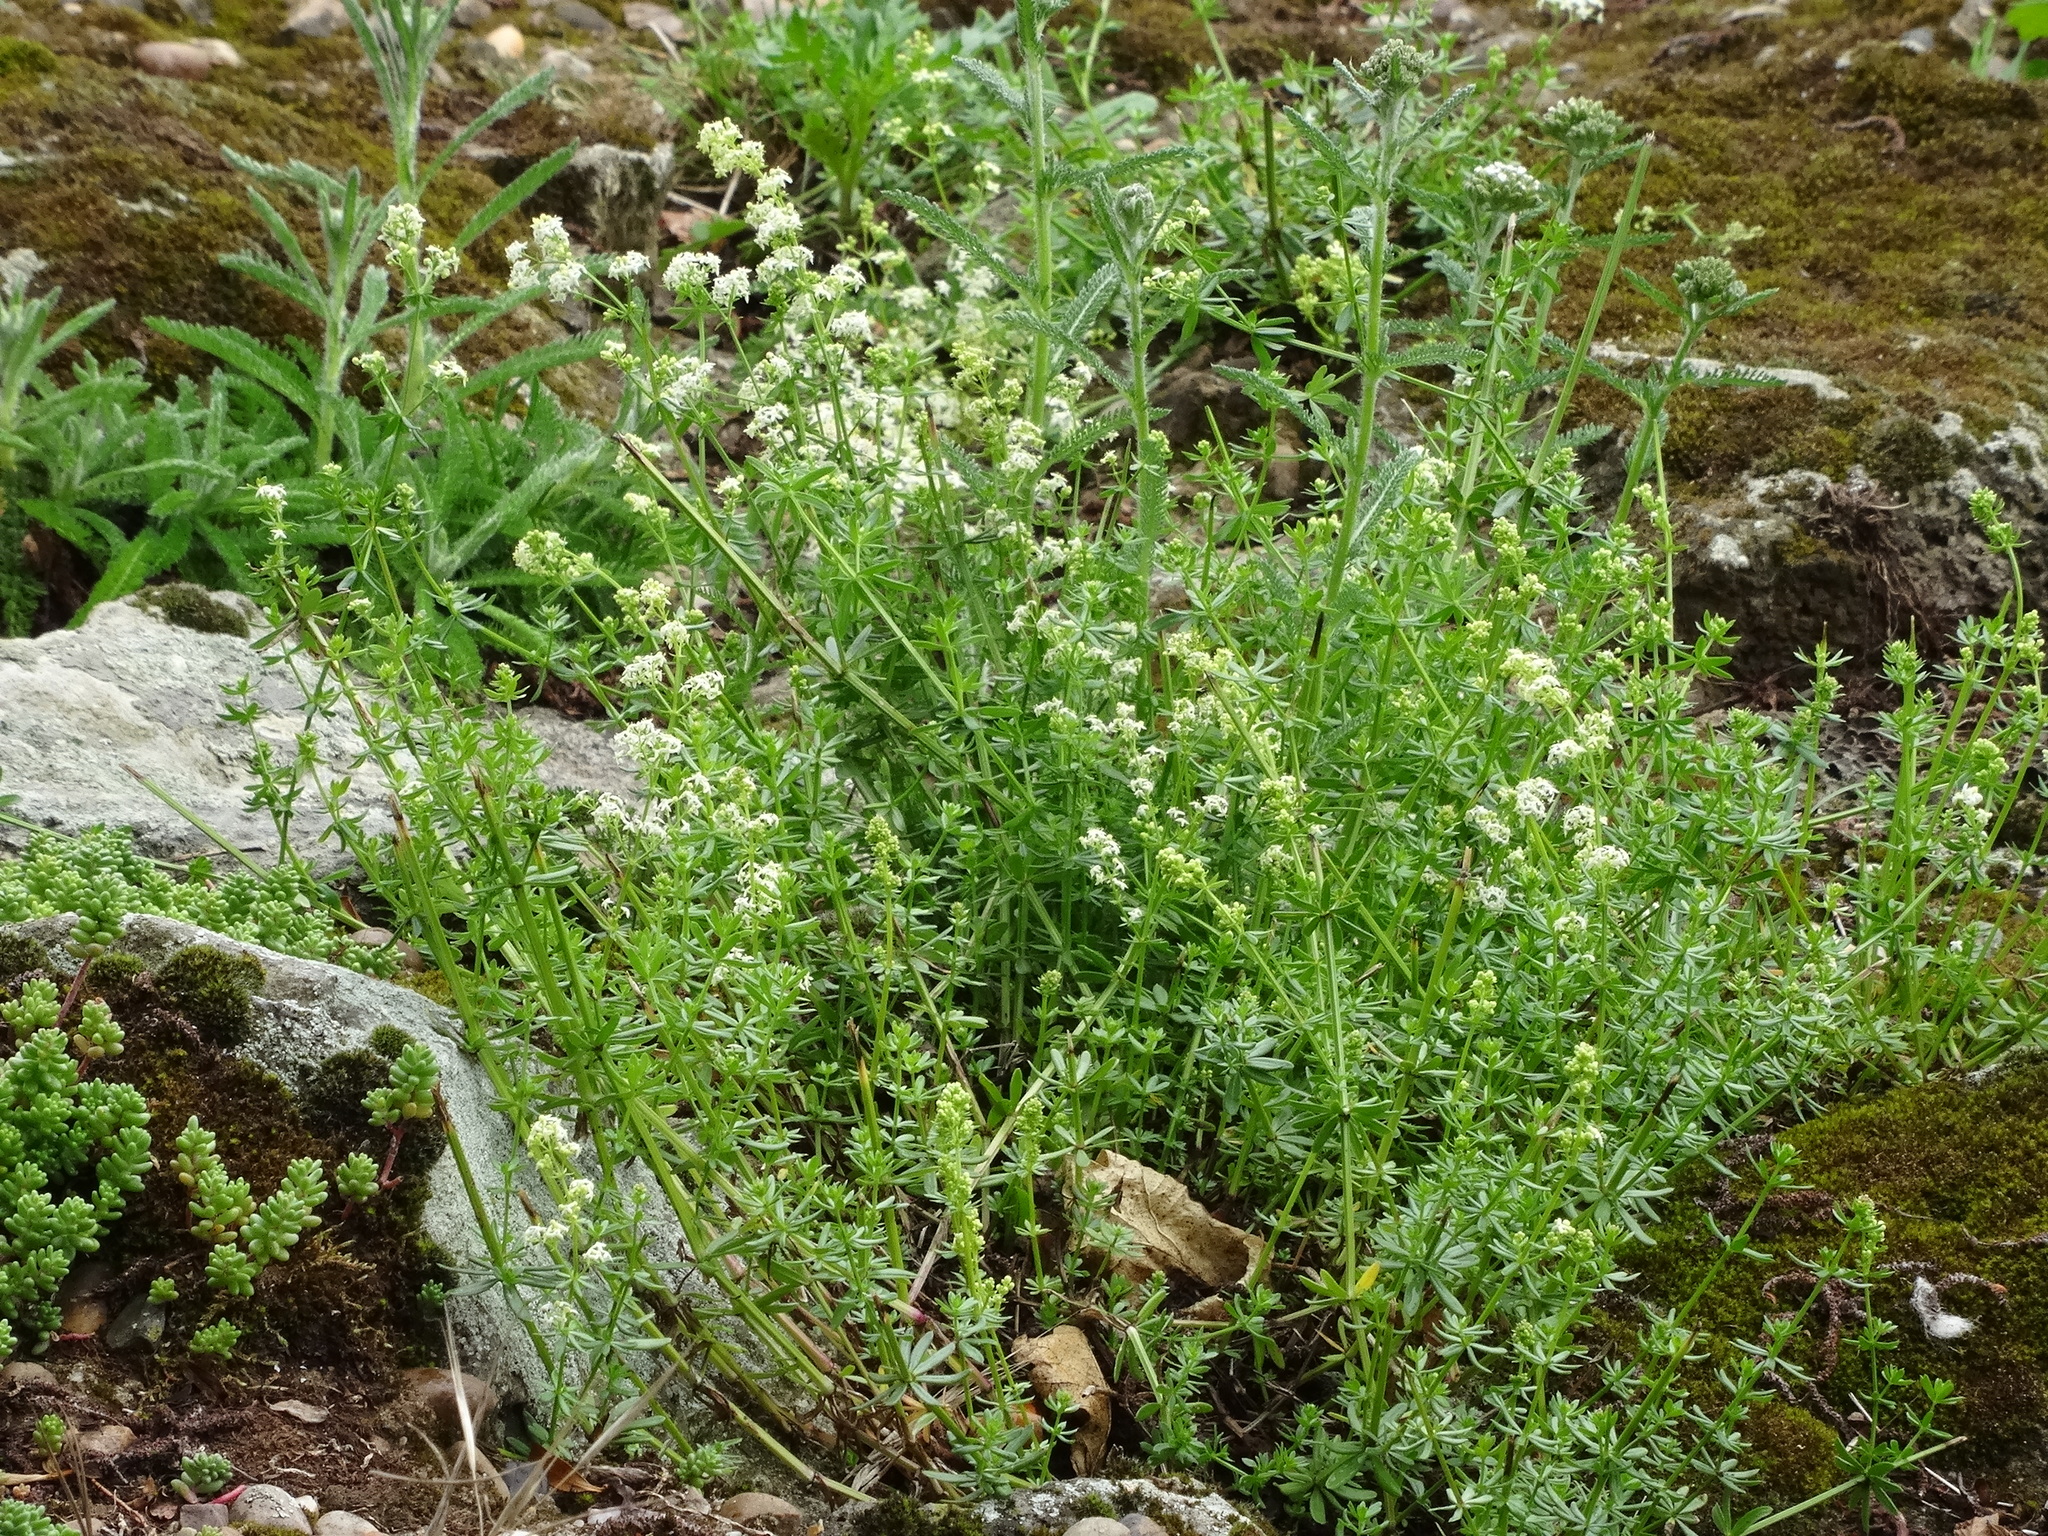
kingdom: Plantae
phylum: Tracheophyta
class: Magnoliopsida
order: Gentianales
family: Rubiaceae
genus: Galium
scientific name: Galium mollugo
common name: Hedge bedstraw
